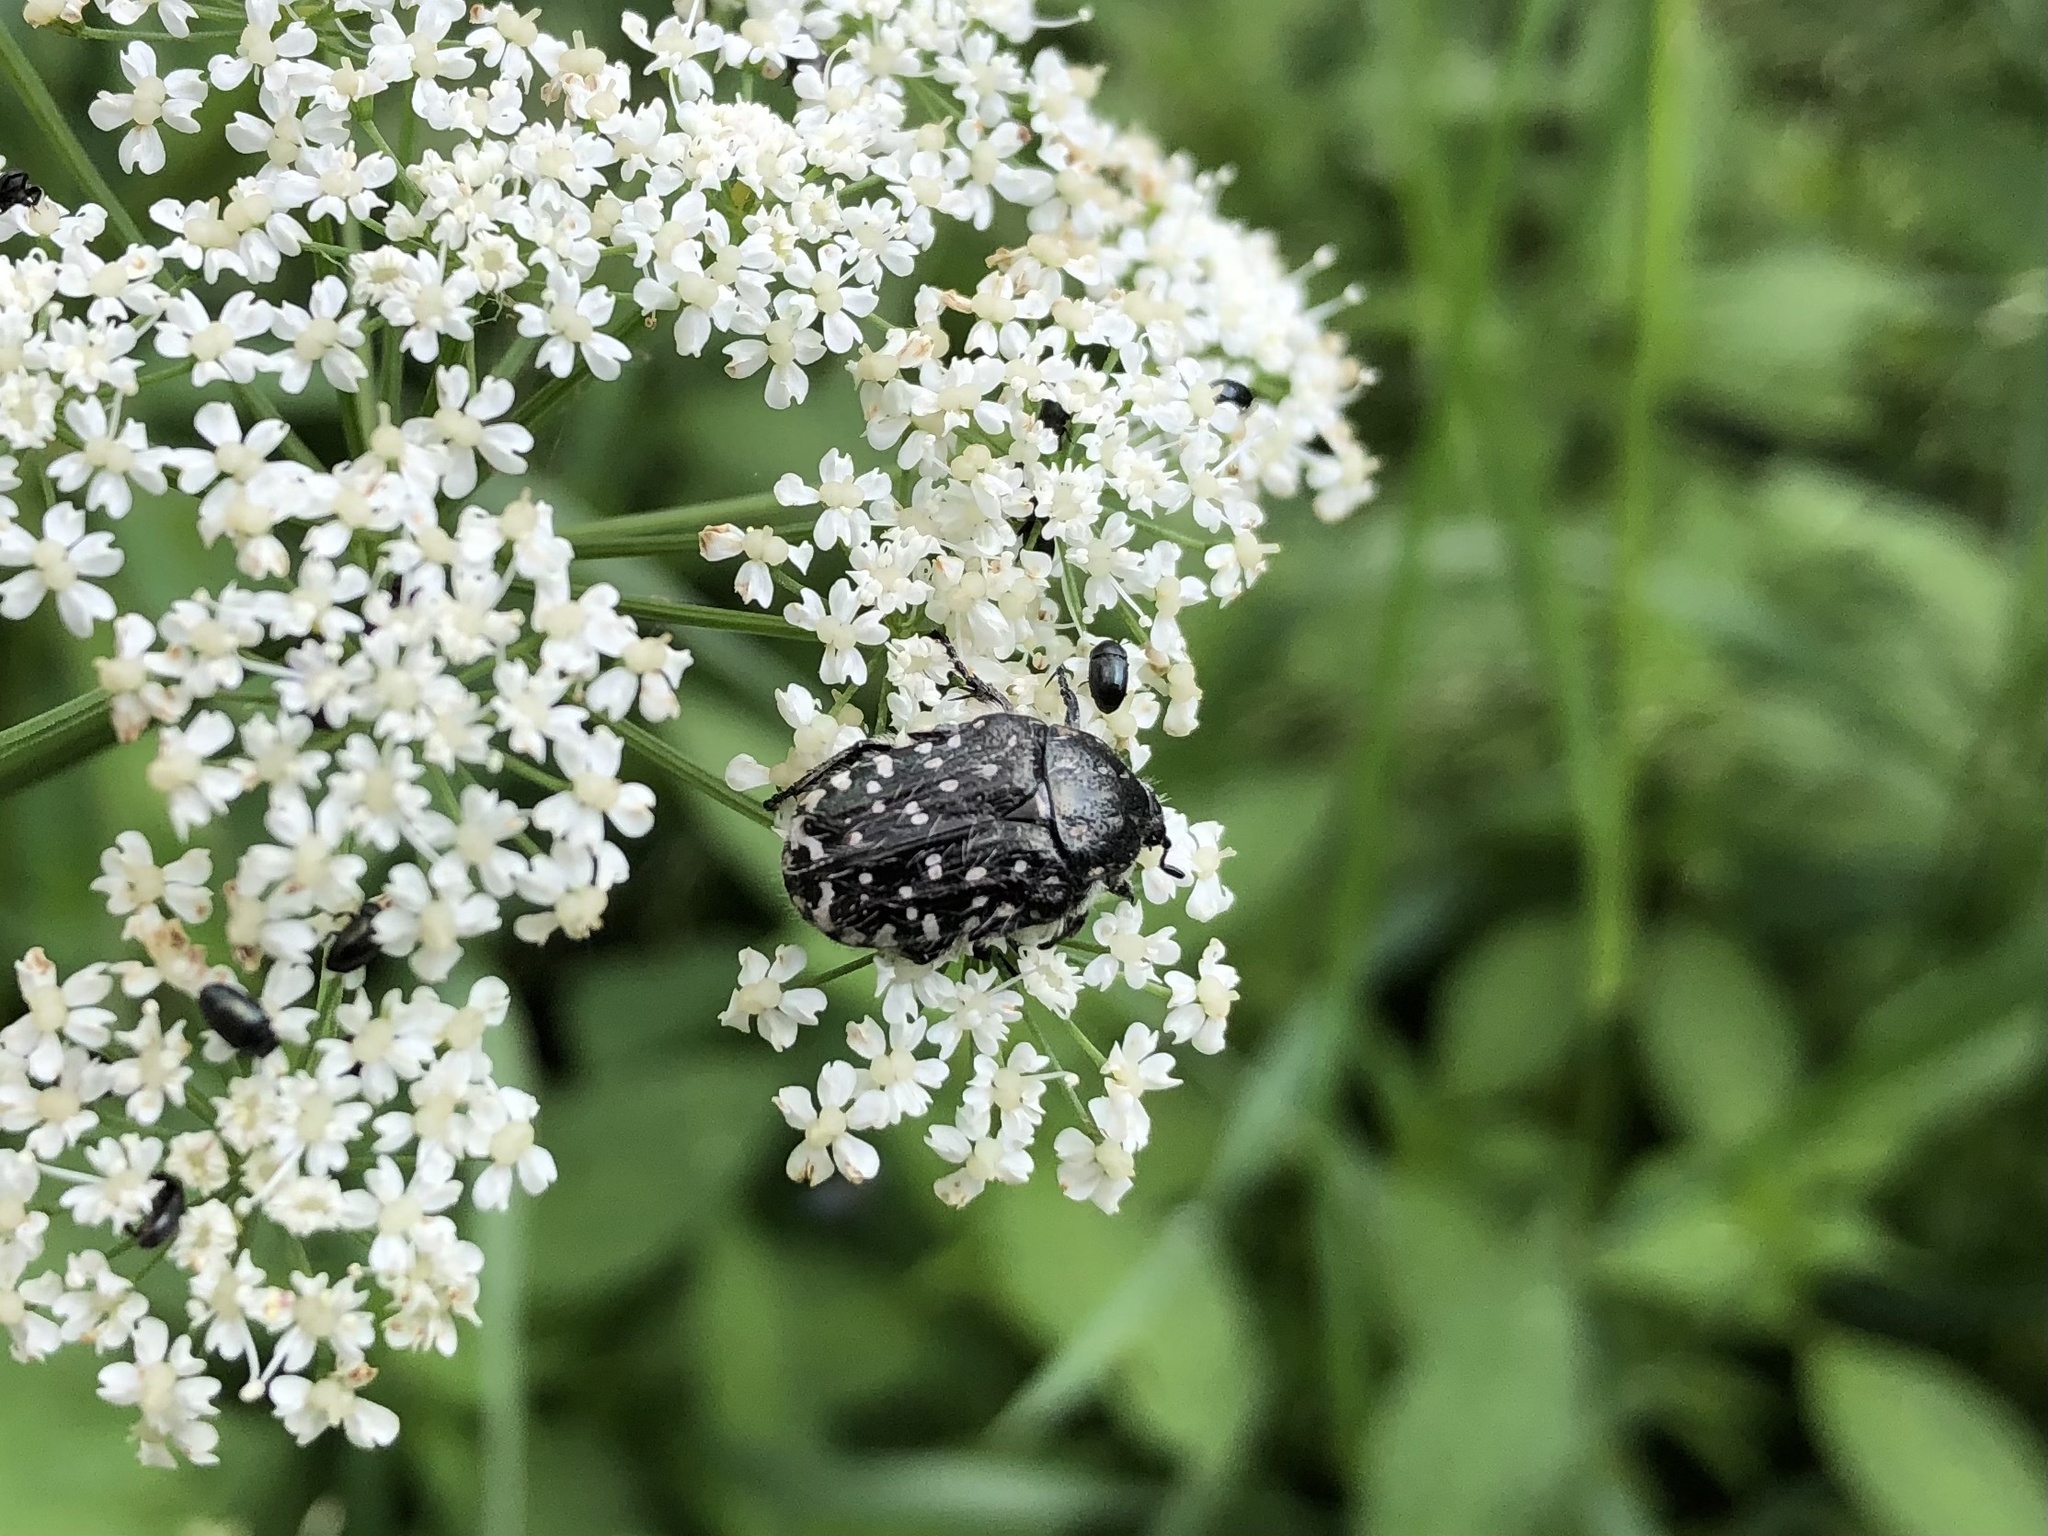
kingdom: Animalia
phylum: Arthropoda
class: Insecta
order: Coleoptera
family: Scarabaeidae
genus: Oxythyrea
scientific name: Oxythyrea funesta
